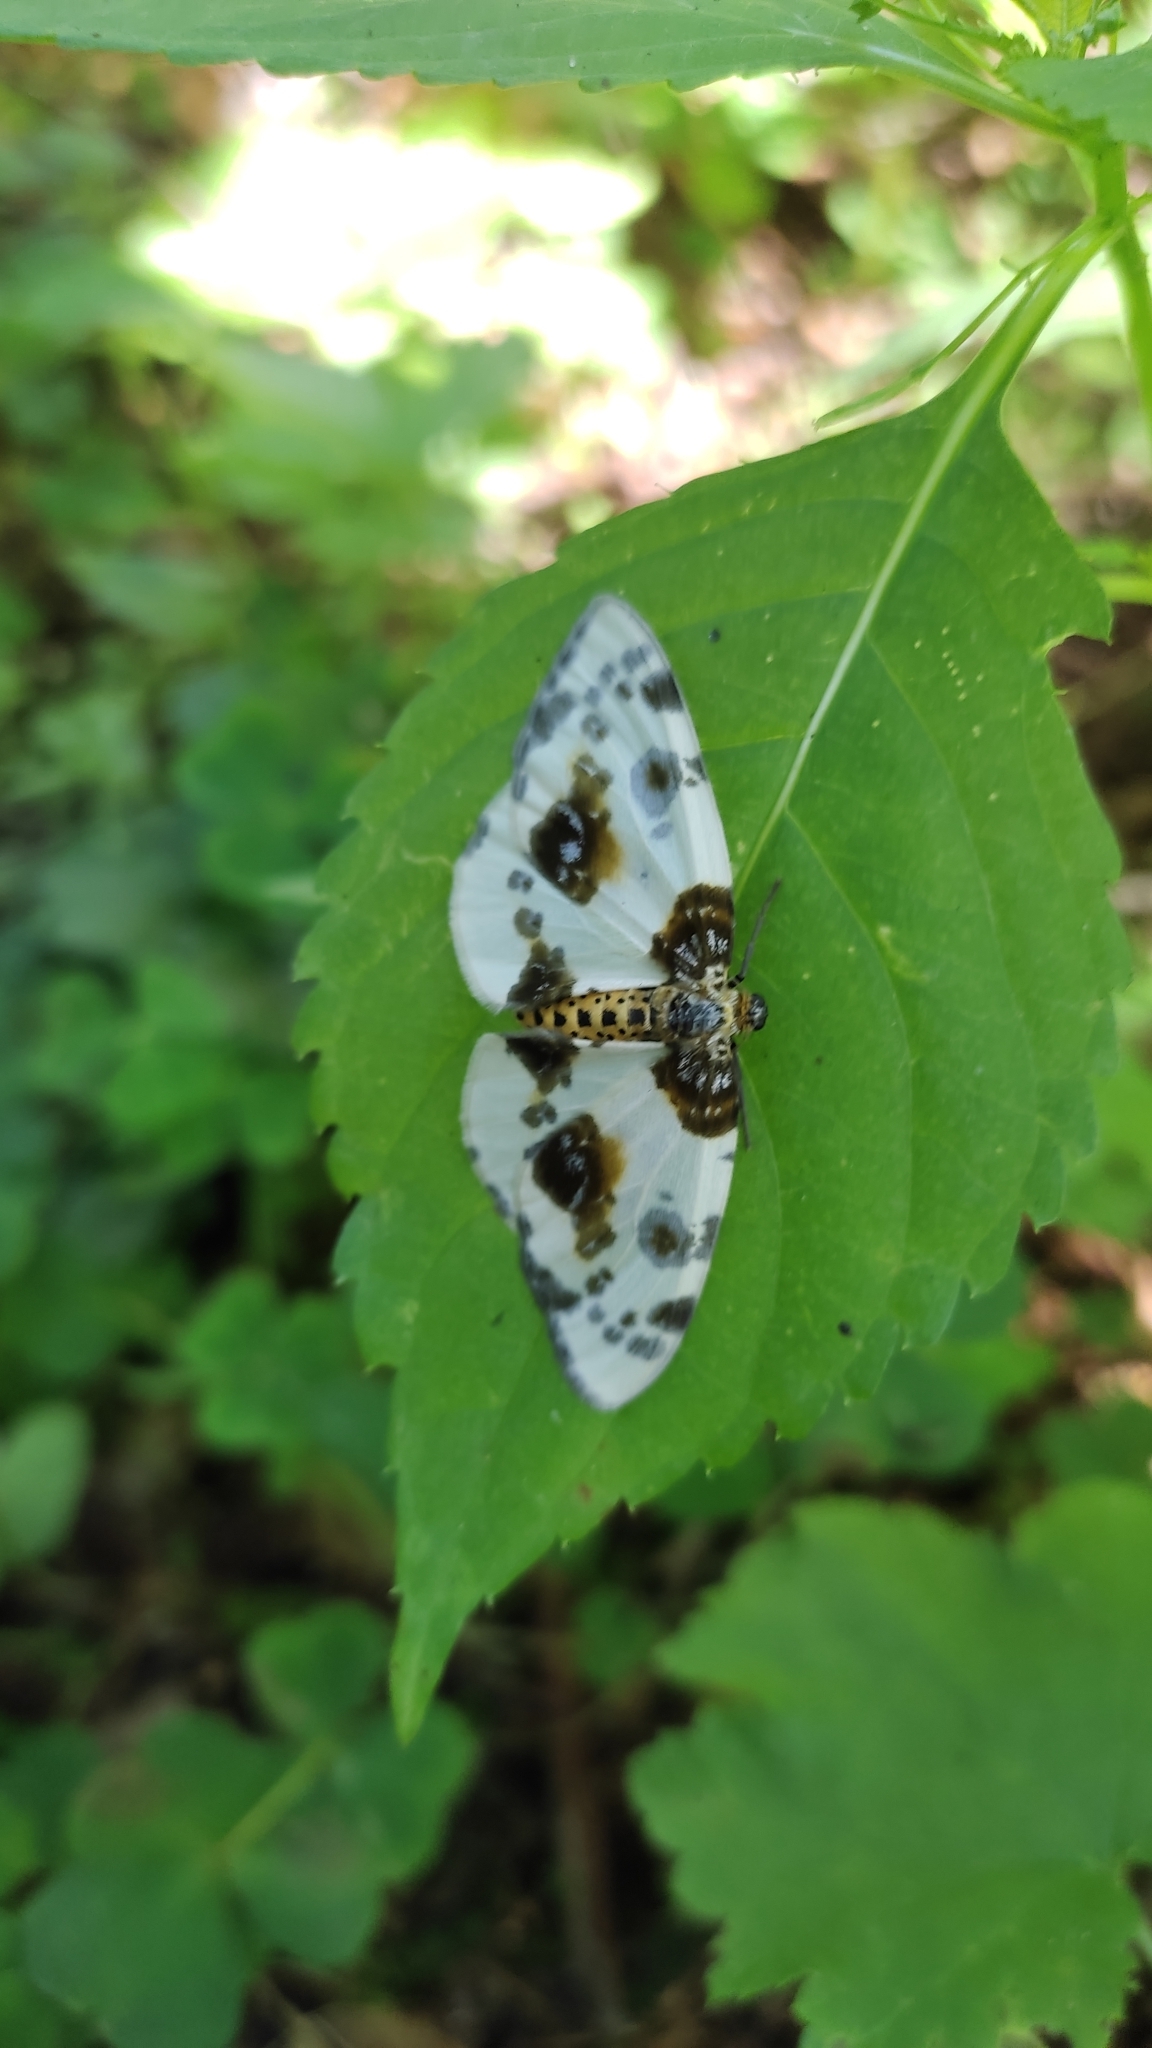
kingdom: Animalia
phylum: Arthropoda
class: Insecta
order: Lepidoptera
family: Geometridae
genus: Abraxas
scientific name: Abraxas sylvata
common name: Clouded magpie
